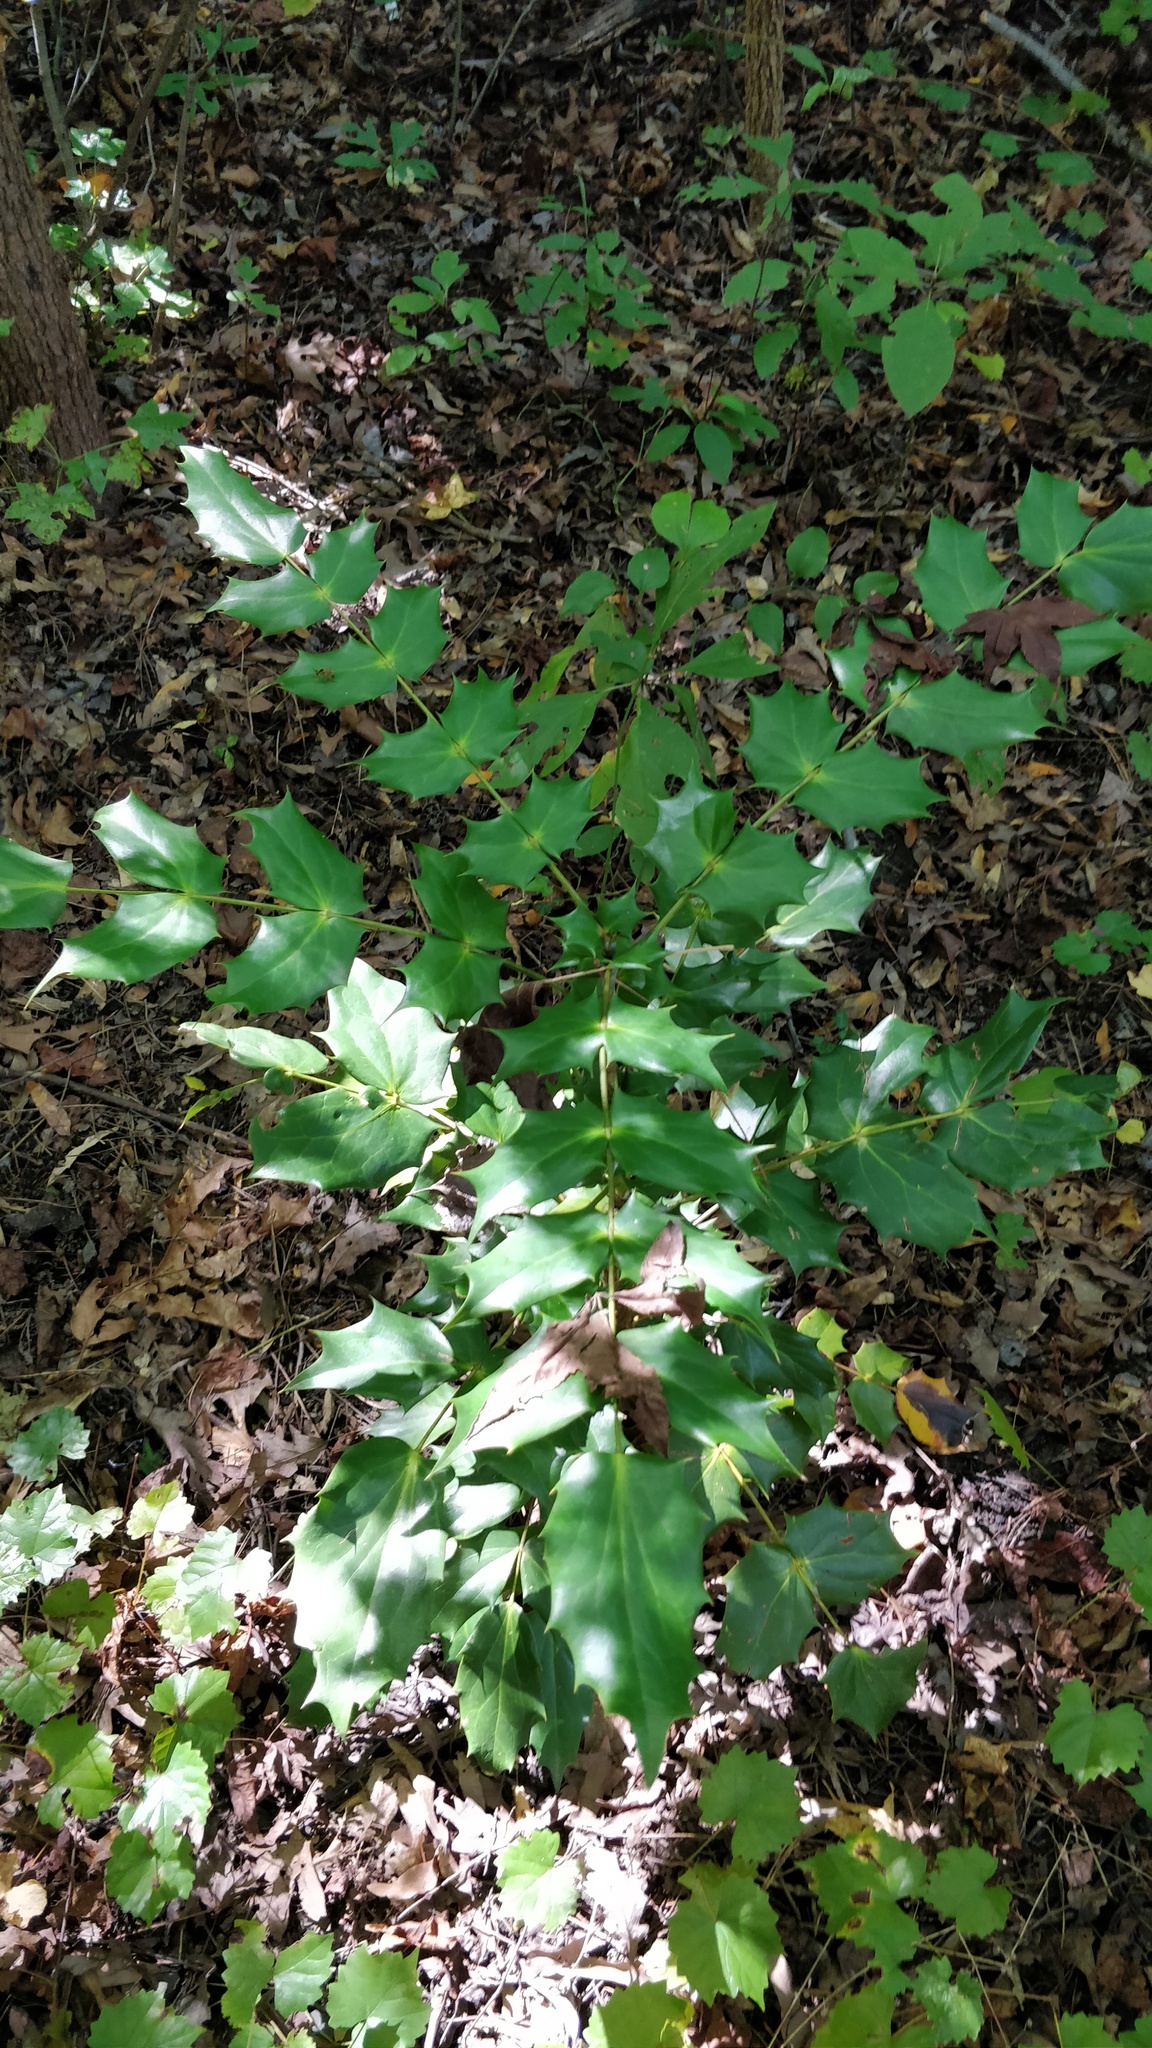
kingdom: Plantae
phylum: Tracheophyta
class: Magnoliopsida
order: Ranunculales
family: Berberidaceae
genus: Mahonia
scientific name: Mahonia bealei
